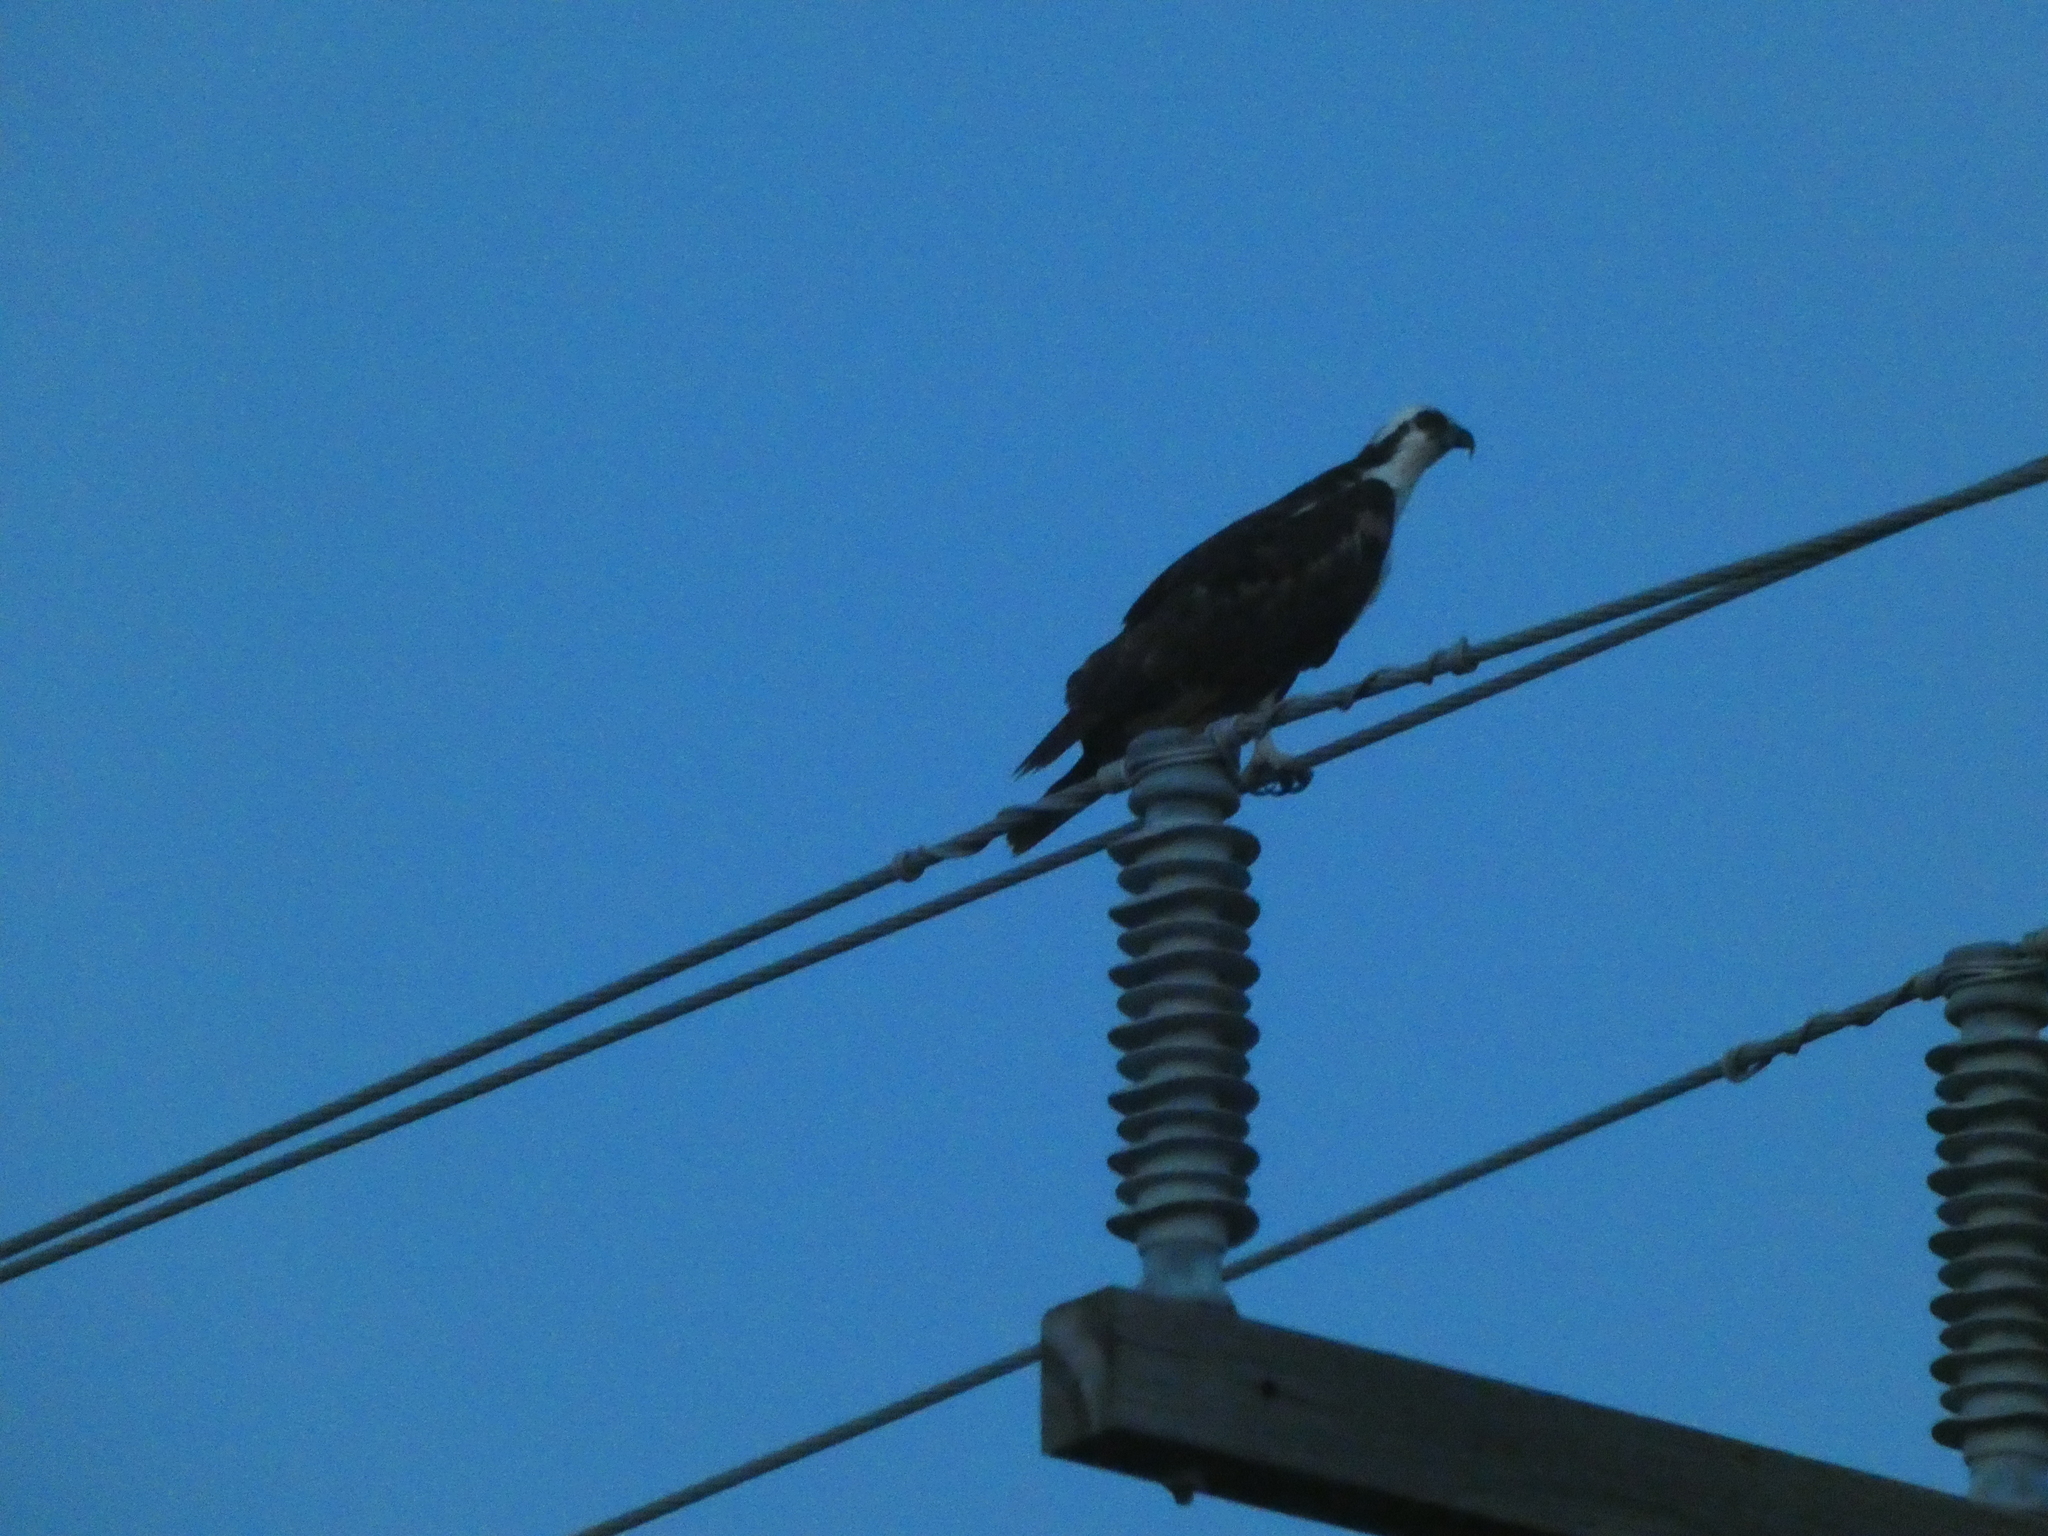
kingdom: Animalia
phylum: Chordata
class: Aves
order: Accipitriformes
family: Pandionidae
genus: Pandion
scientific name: Pandion haliaetus
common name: Osprey
